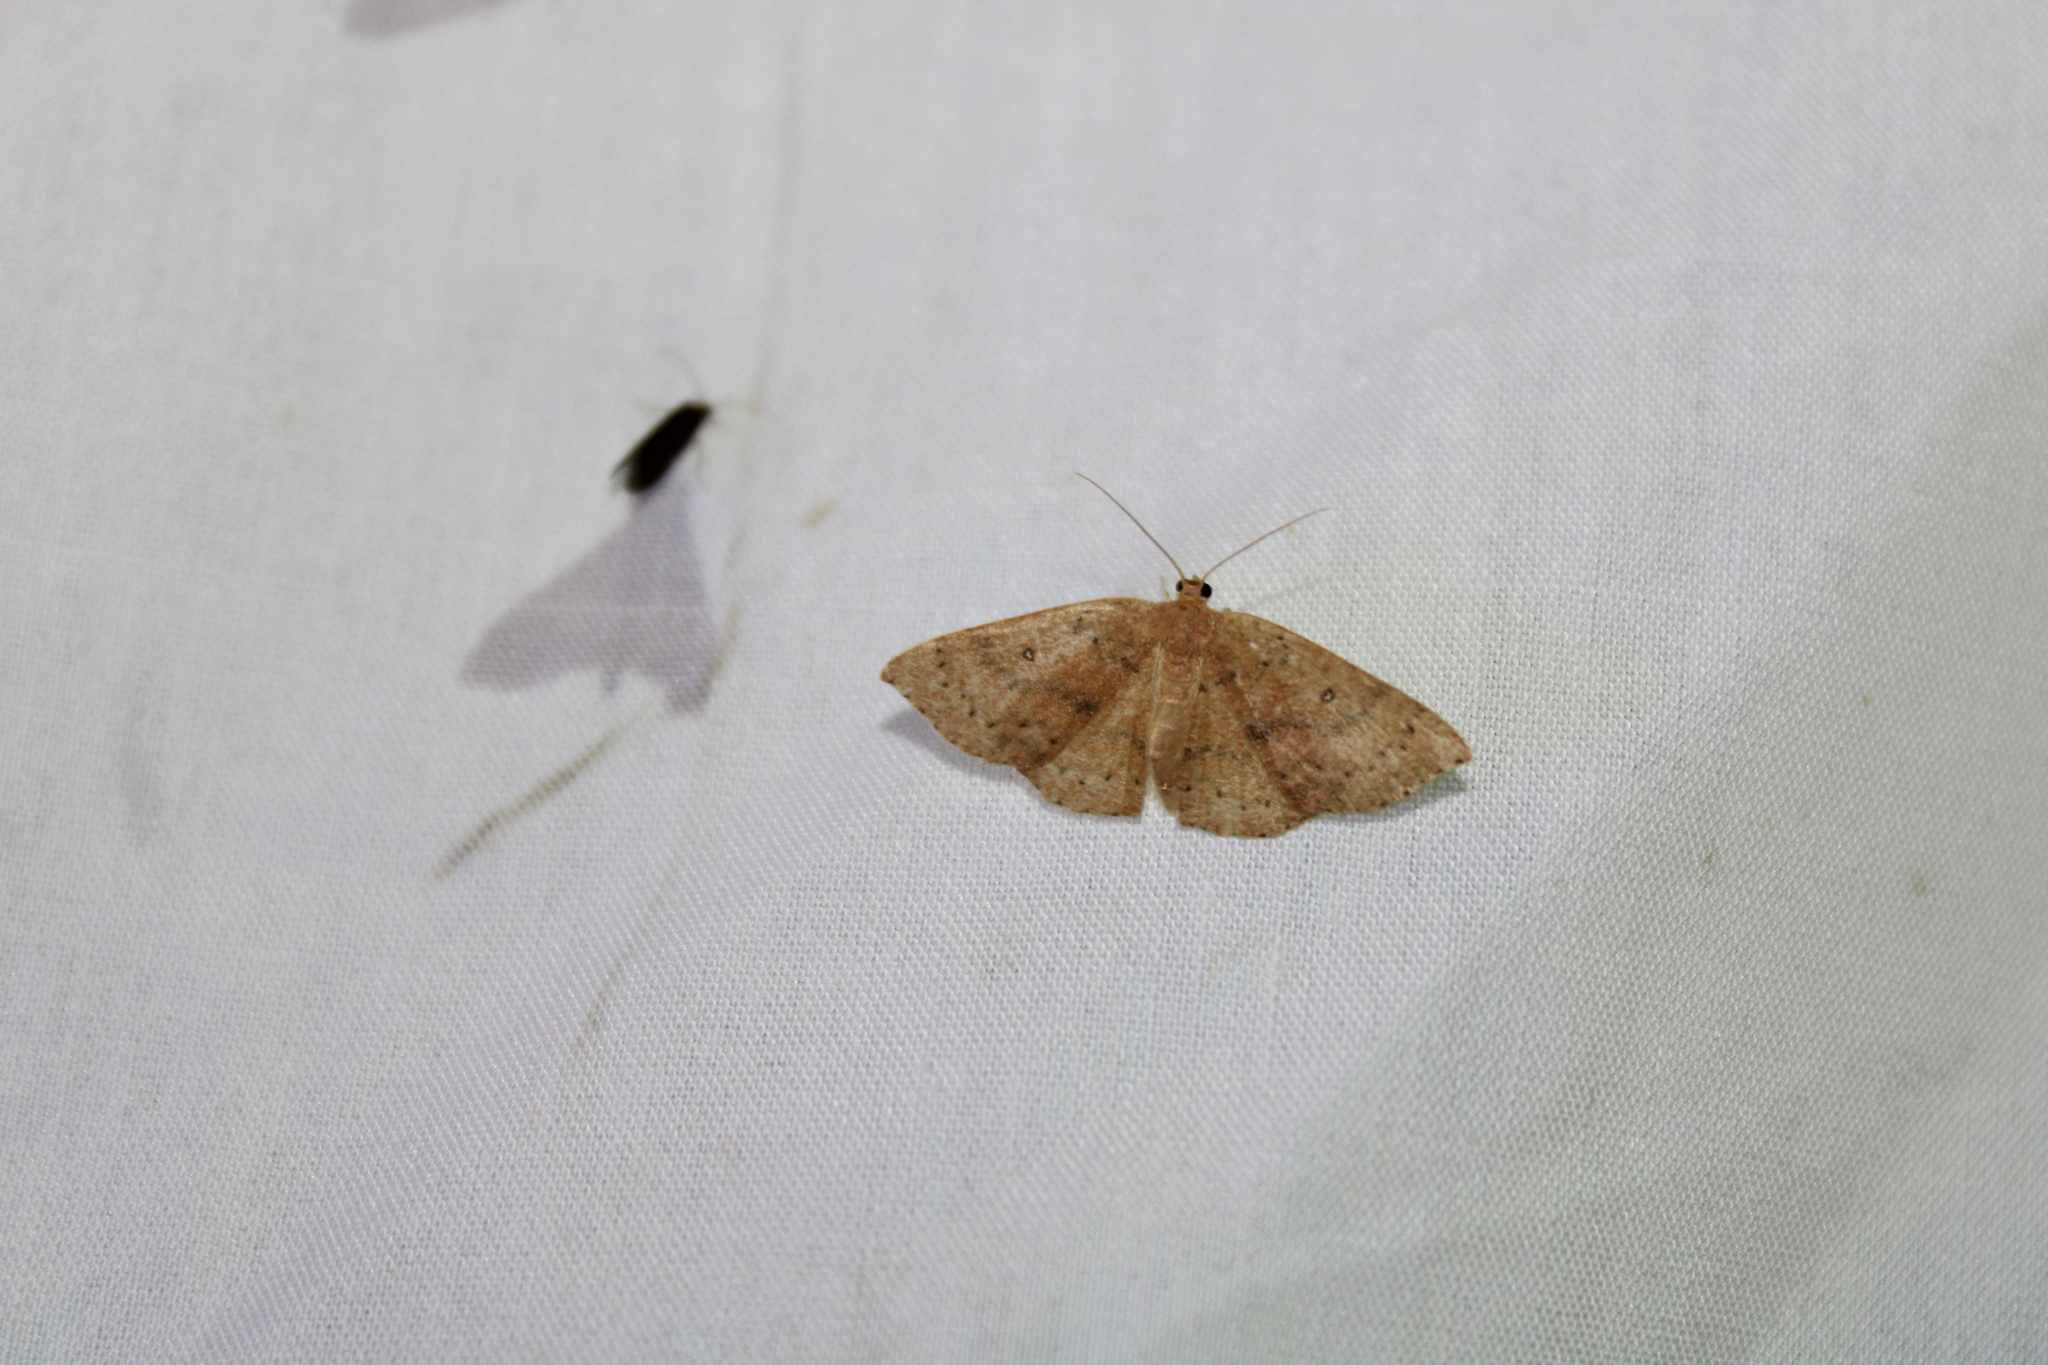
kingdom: Animalia
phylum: Arthropoda
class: Insecta
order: Lepidoptera
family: Geometridae
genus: Cyclophora
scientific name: Cyclophora packardi
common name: Packard's wave
